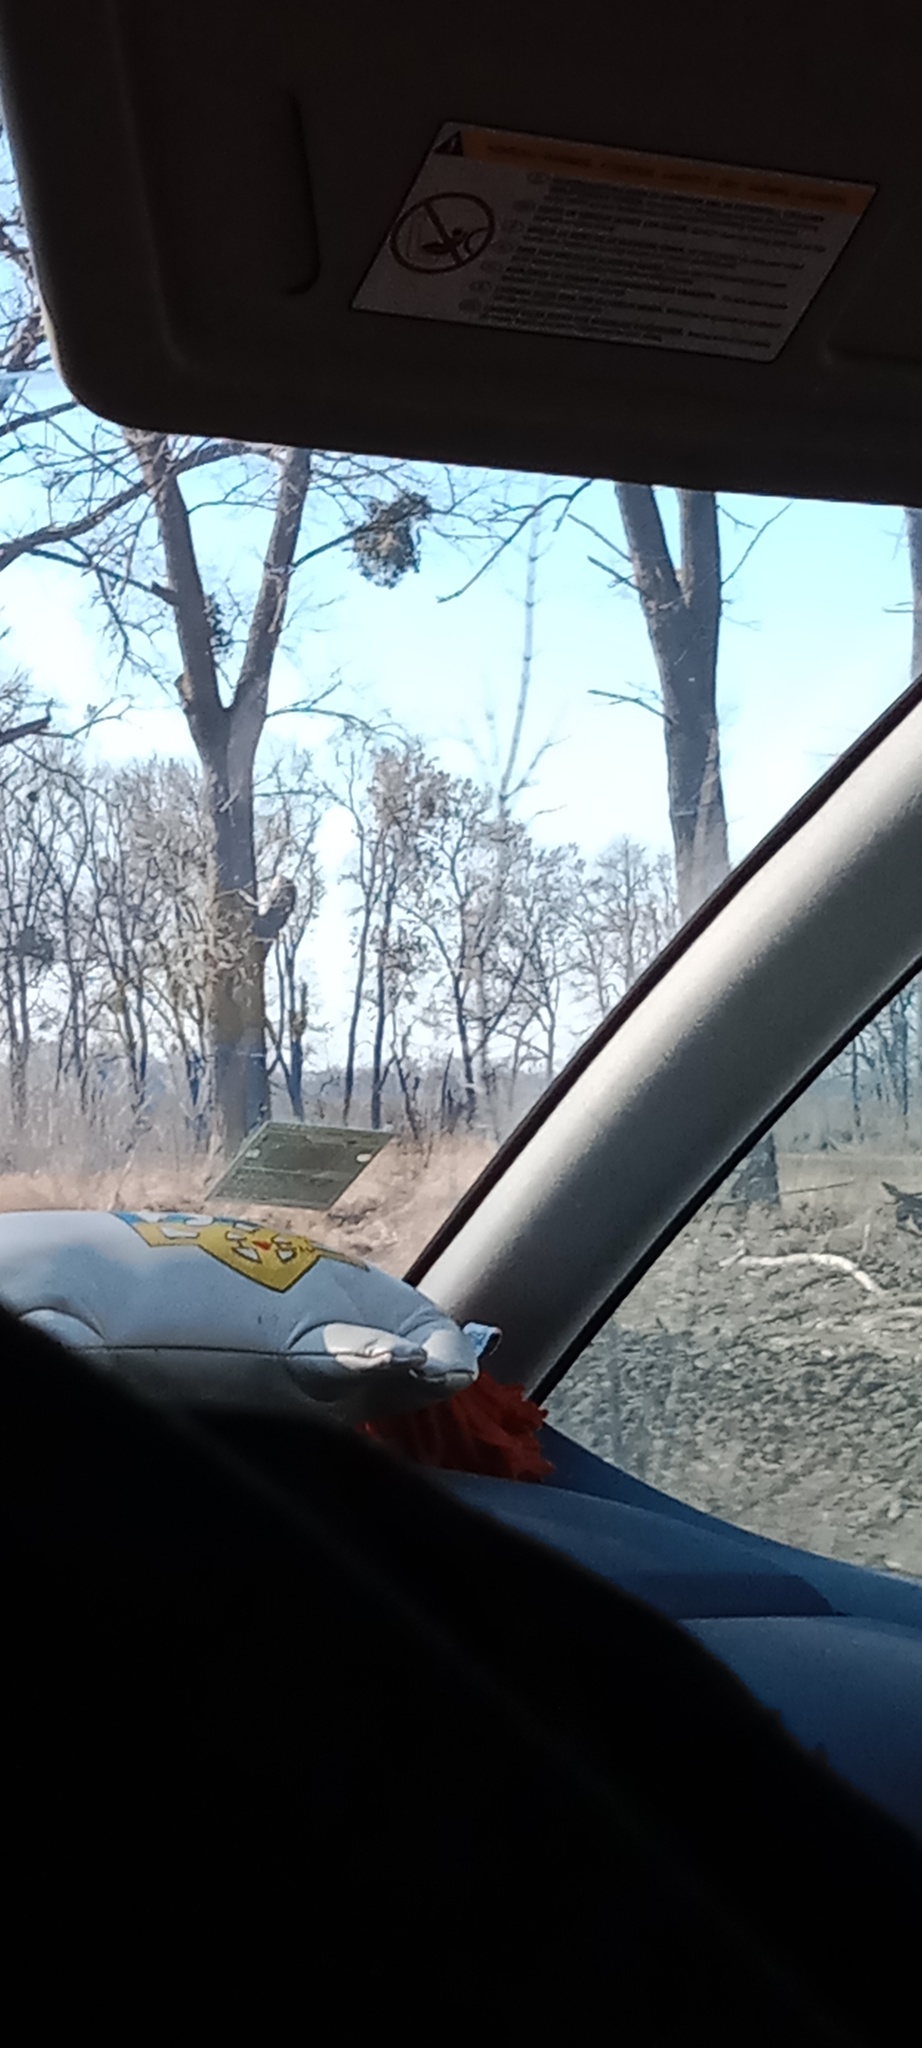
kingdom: Plantae
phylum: Tracheophyta
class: Magnoliopsida
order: Santalales
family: Viscaceae
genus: Viscum
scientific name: Viscum album
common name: Mistletoe
